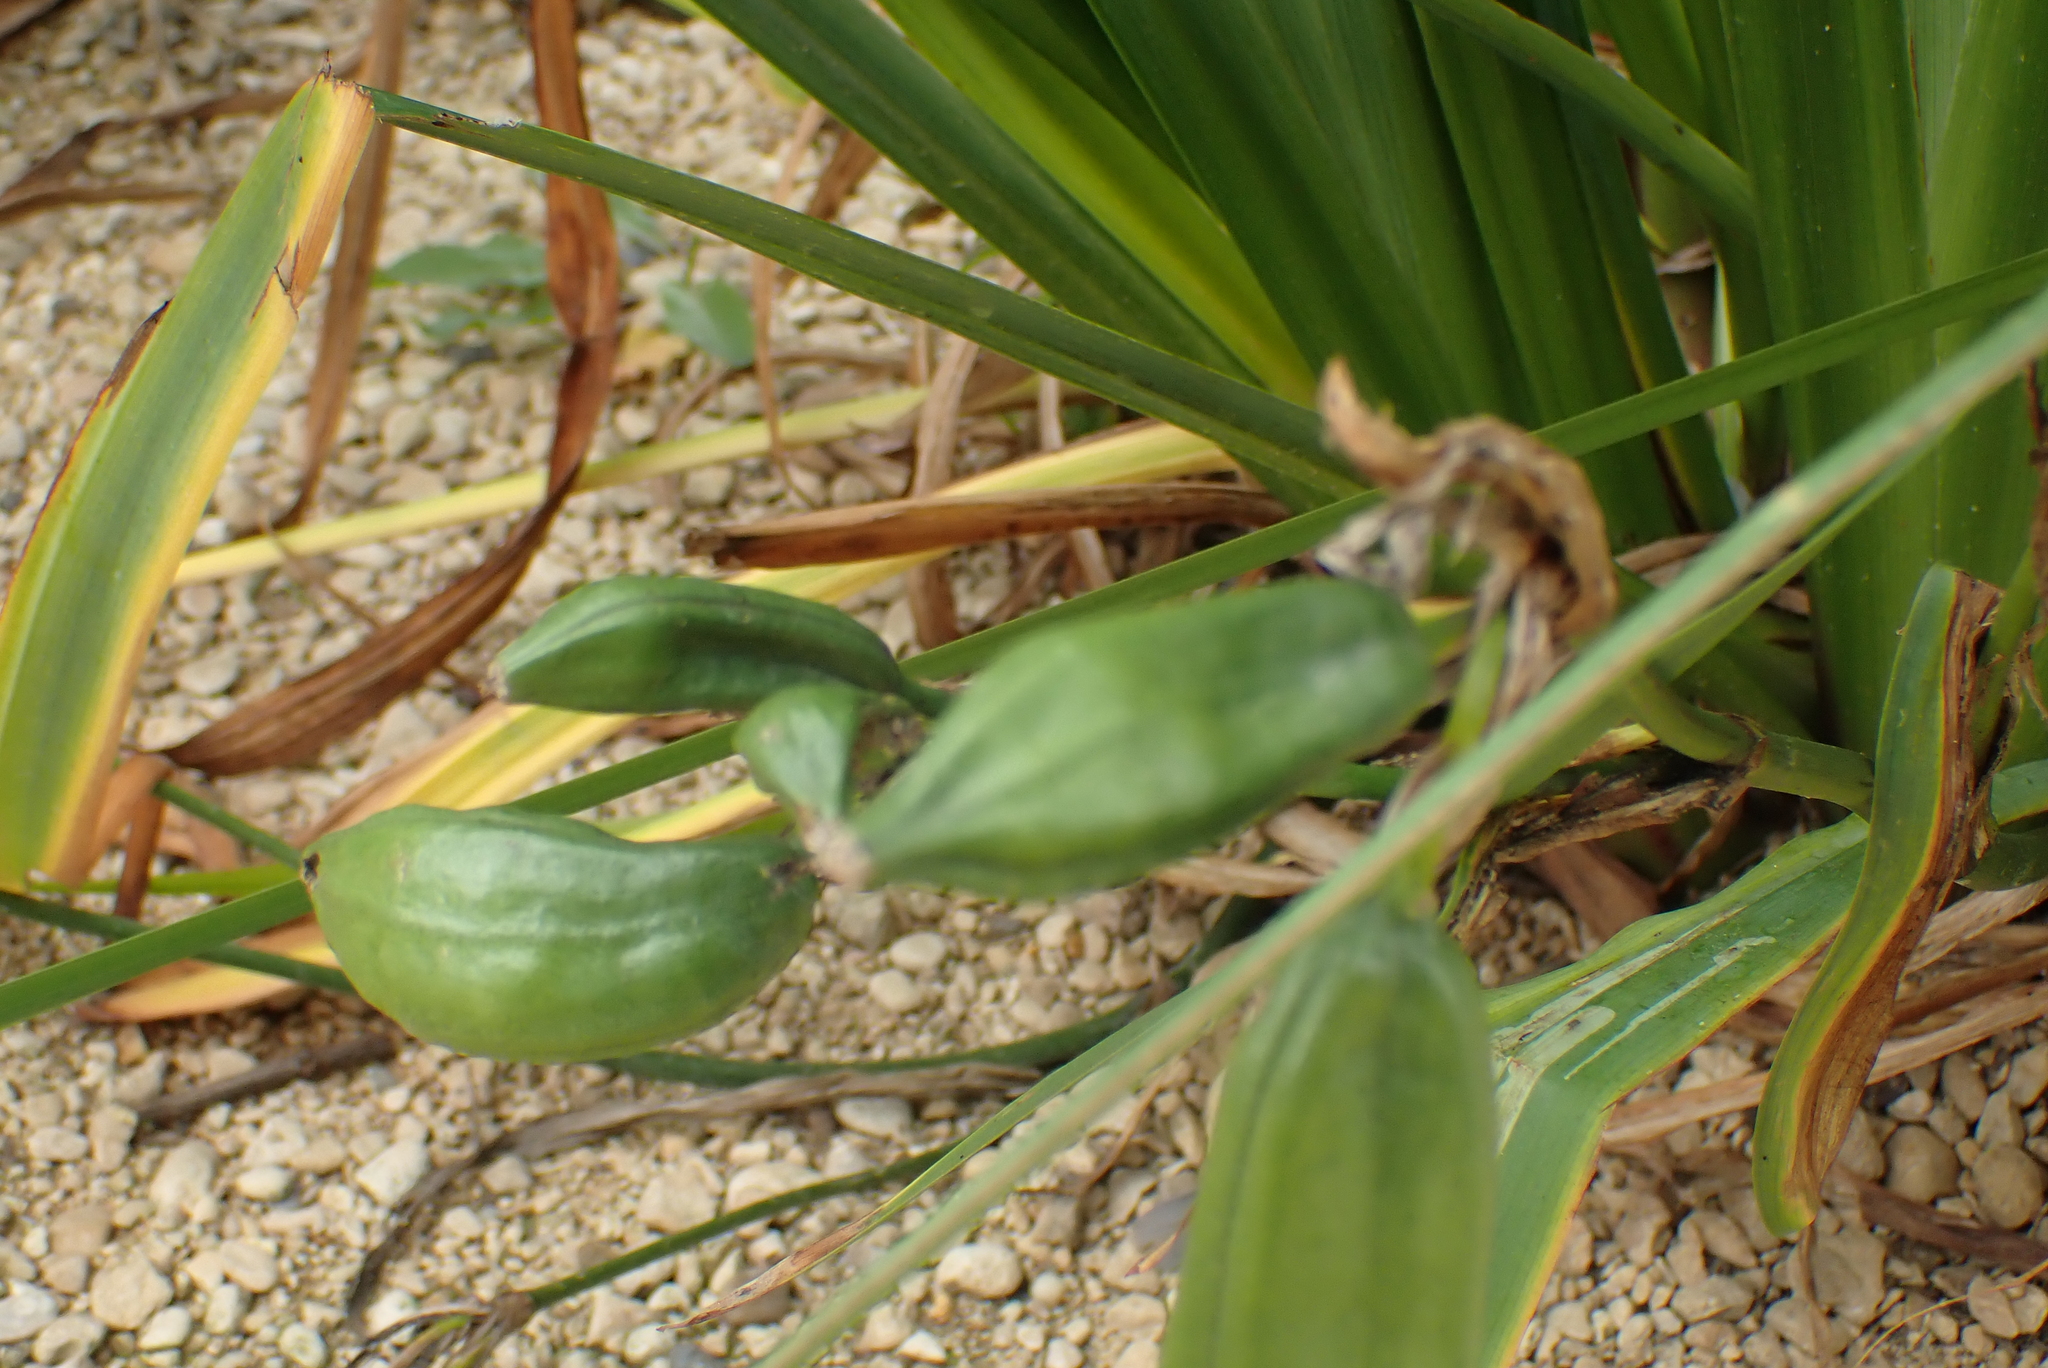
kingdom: Plantae
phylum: Tracheophyta
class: Liliopsida
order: Asparagales
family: Iridaceae
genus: Iris
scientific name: Iris pseudacorus
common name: Yellow flag
